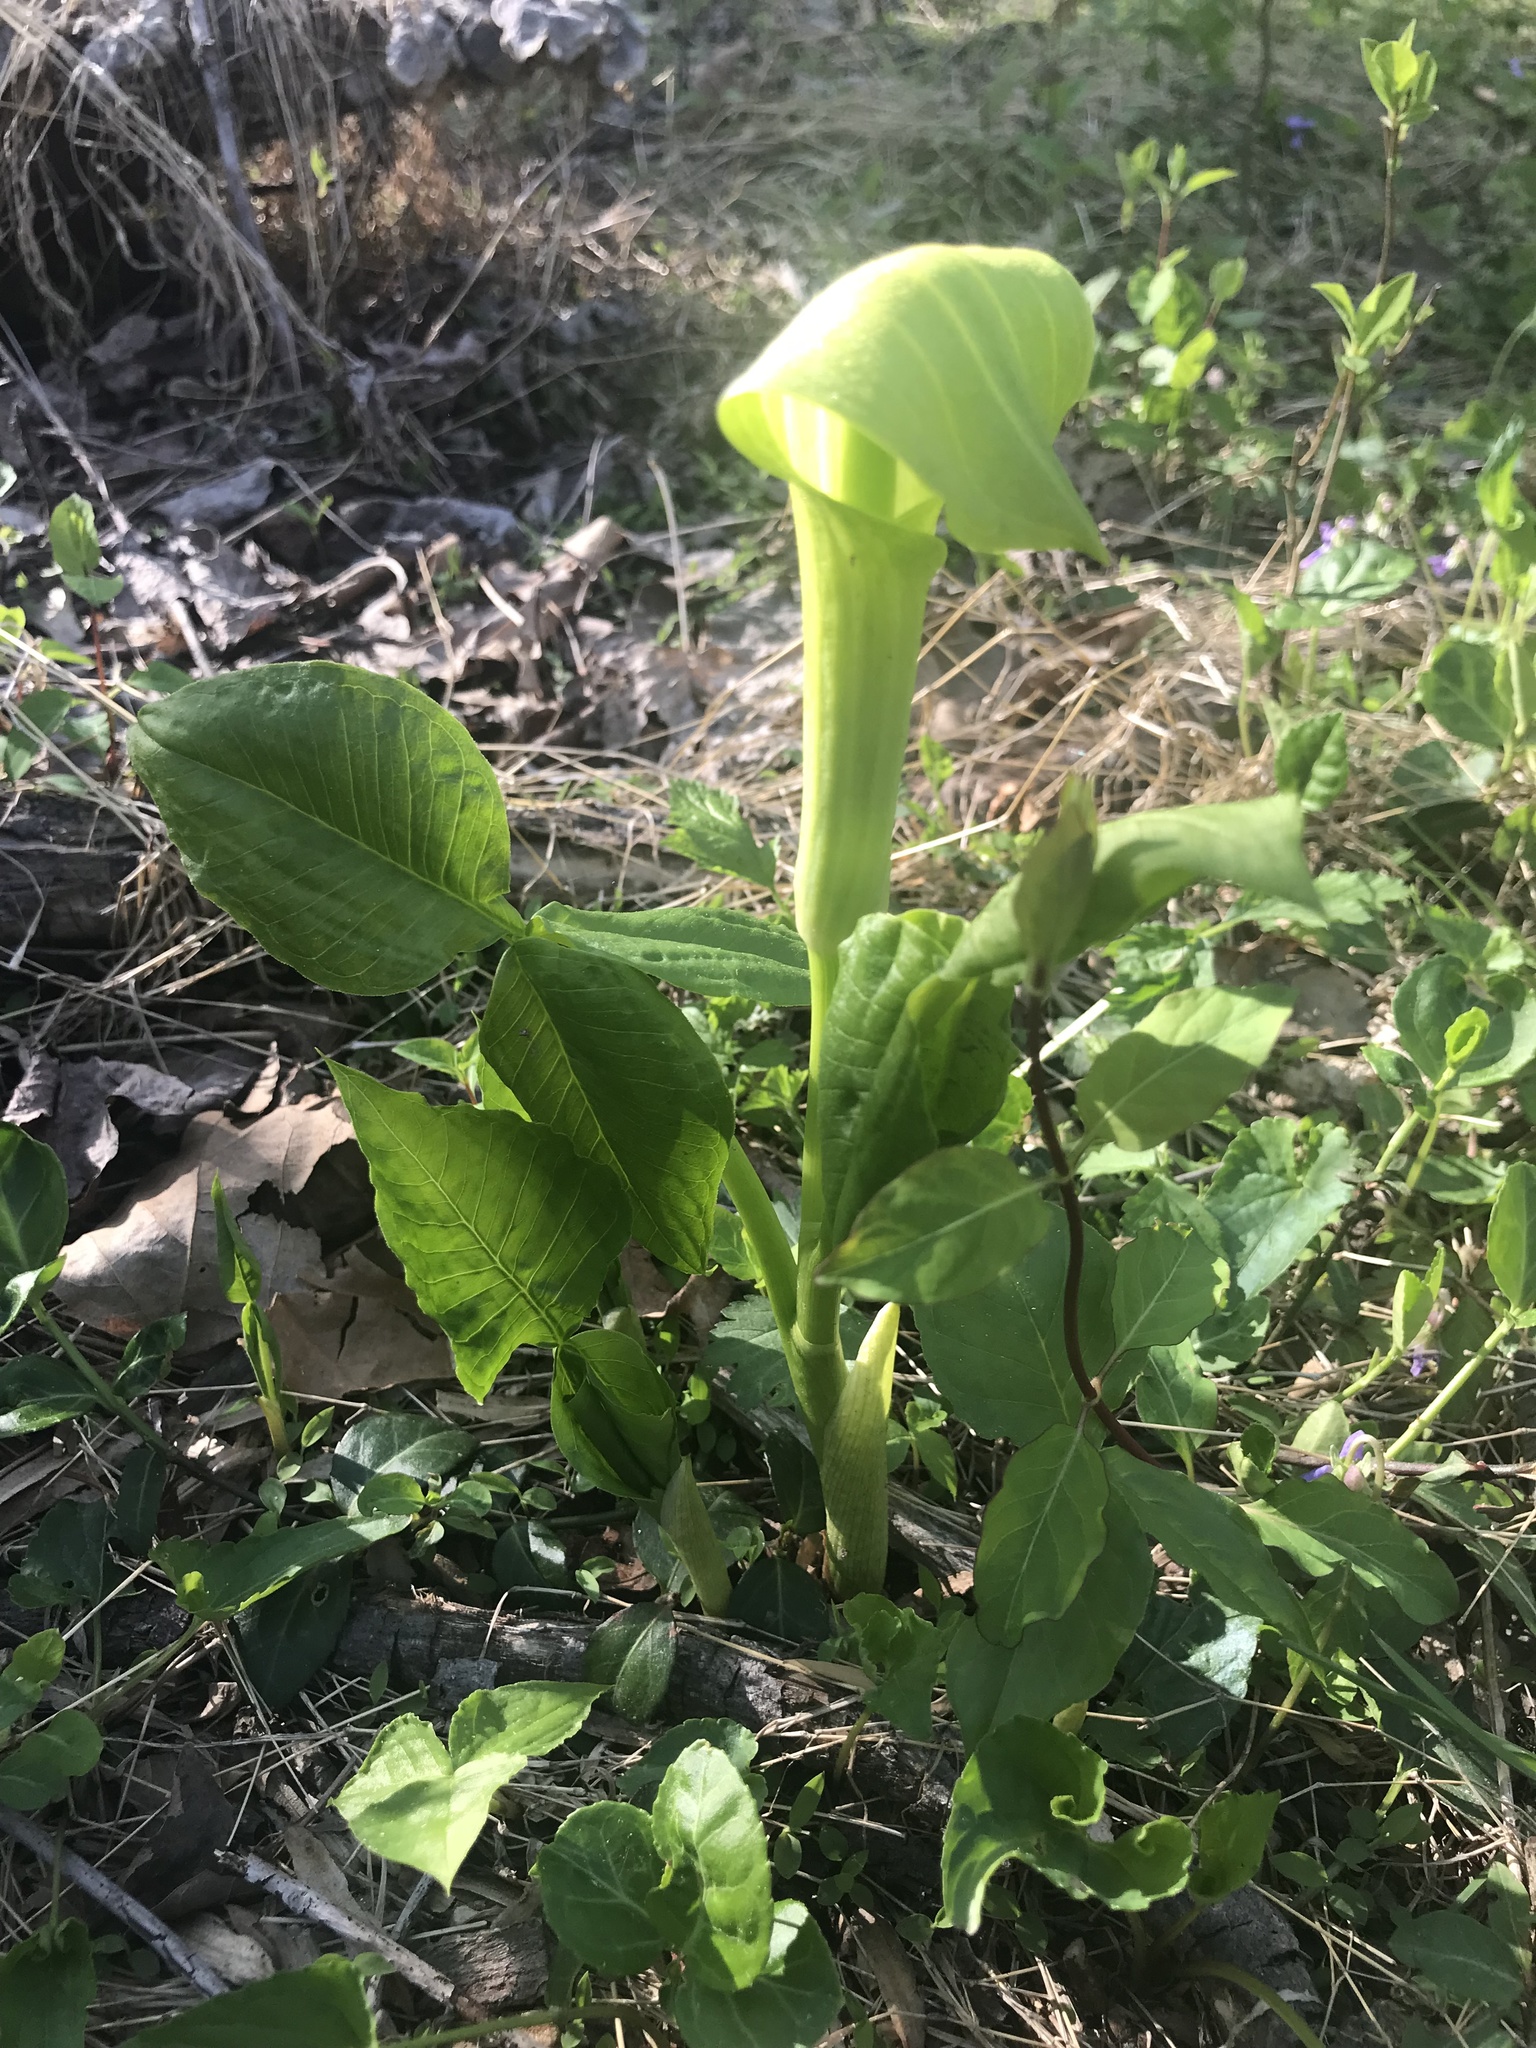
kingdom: Plantae
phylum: Tracheophyta
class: Liliopsida
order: Alismatales
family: Araceae
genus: Arisaema
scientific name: Arisaema triphyllum
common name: Jack-in-the-pulpit
